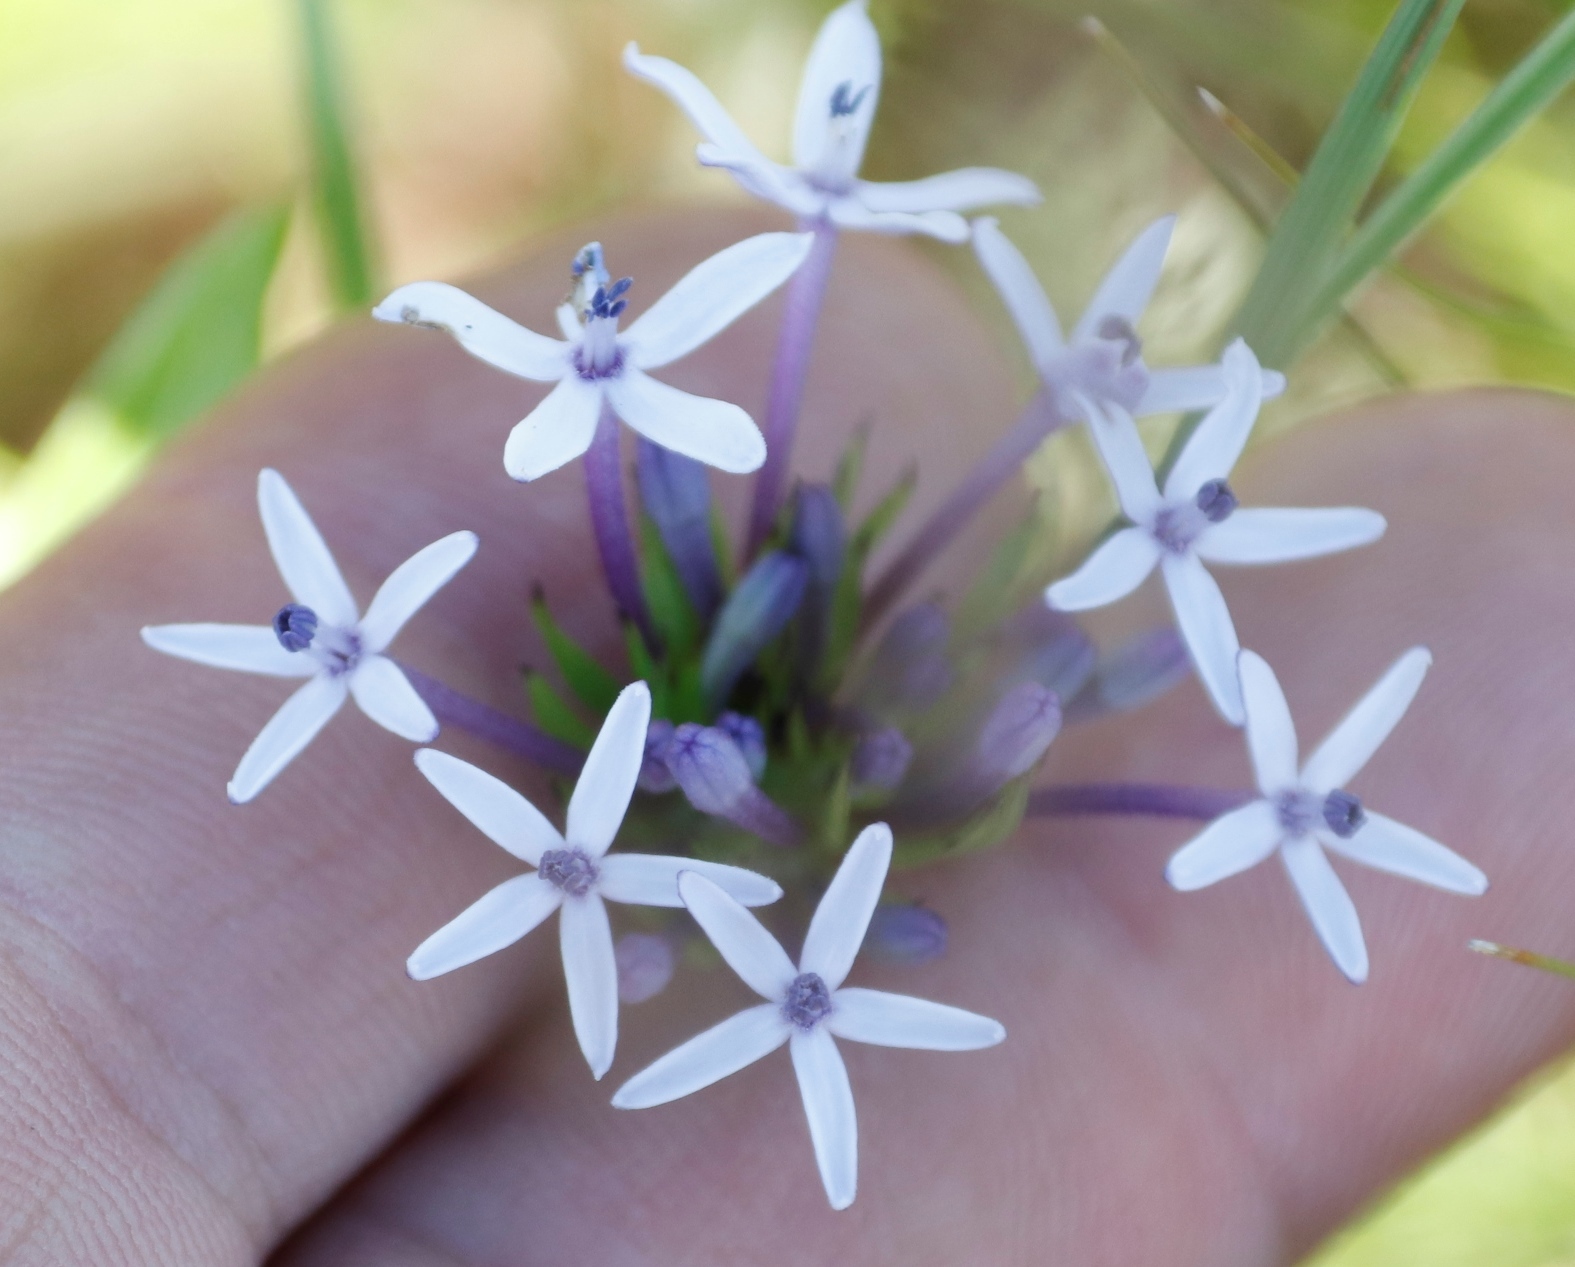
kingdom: Plantae
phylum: Tracheophyta
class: Magnoliopsida
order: Gentianales
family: Rubiaceae
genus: Pentanisia
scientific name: Pentanisia prunelloides
